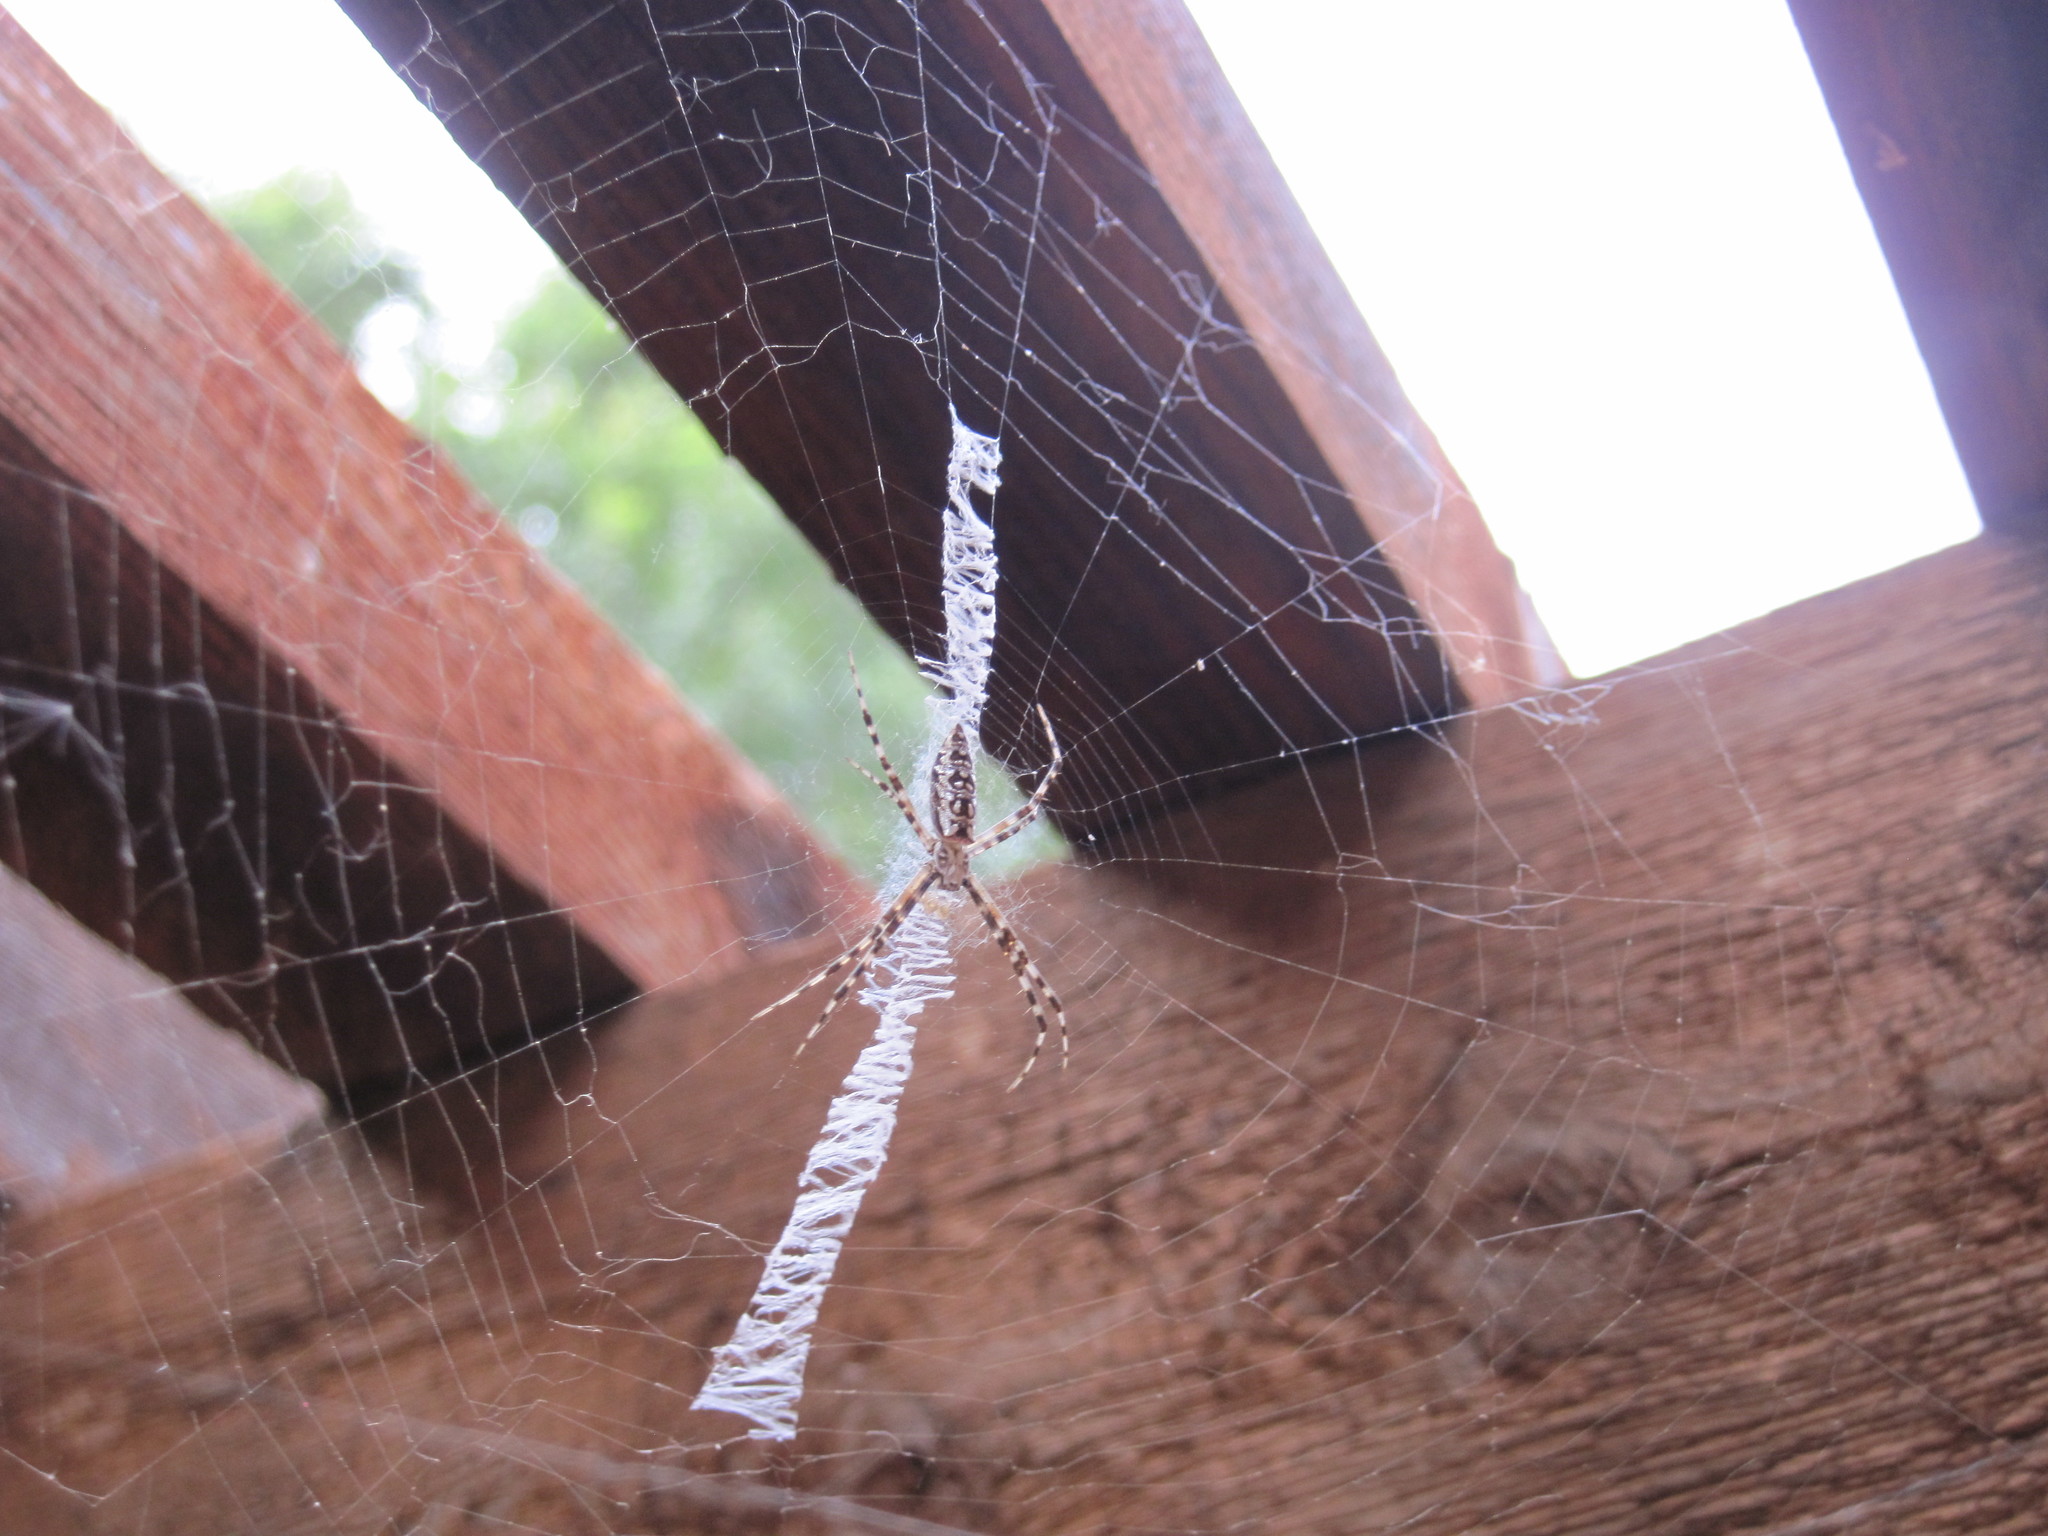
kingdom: Animalia
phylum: Arthropoda
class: Arachnida
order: Araneae
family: Araneidae
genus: Argiope
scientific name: Argiope aurantia
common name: Orb weavers
